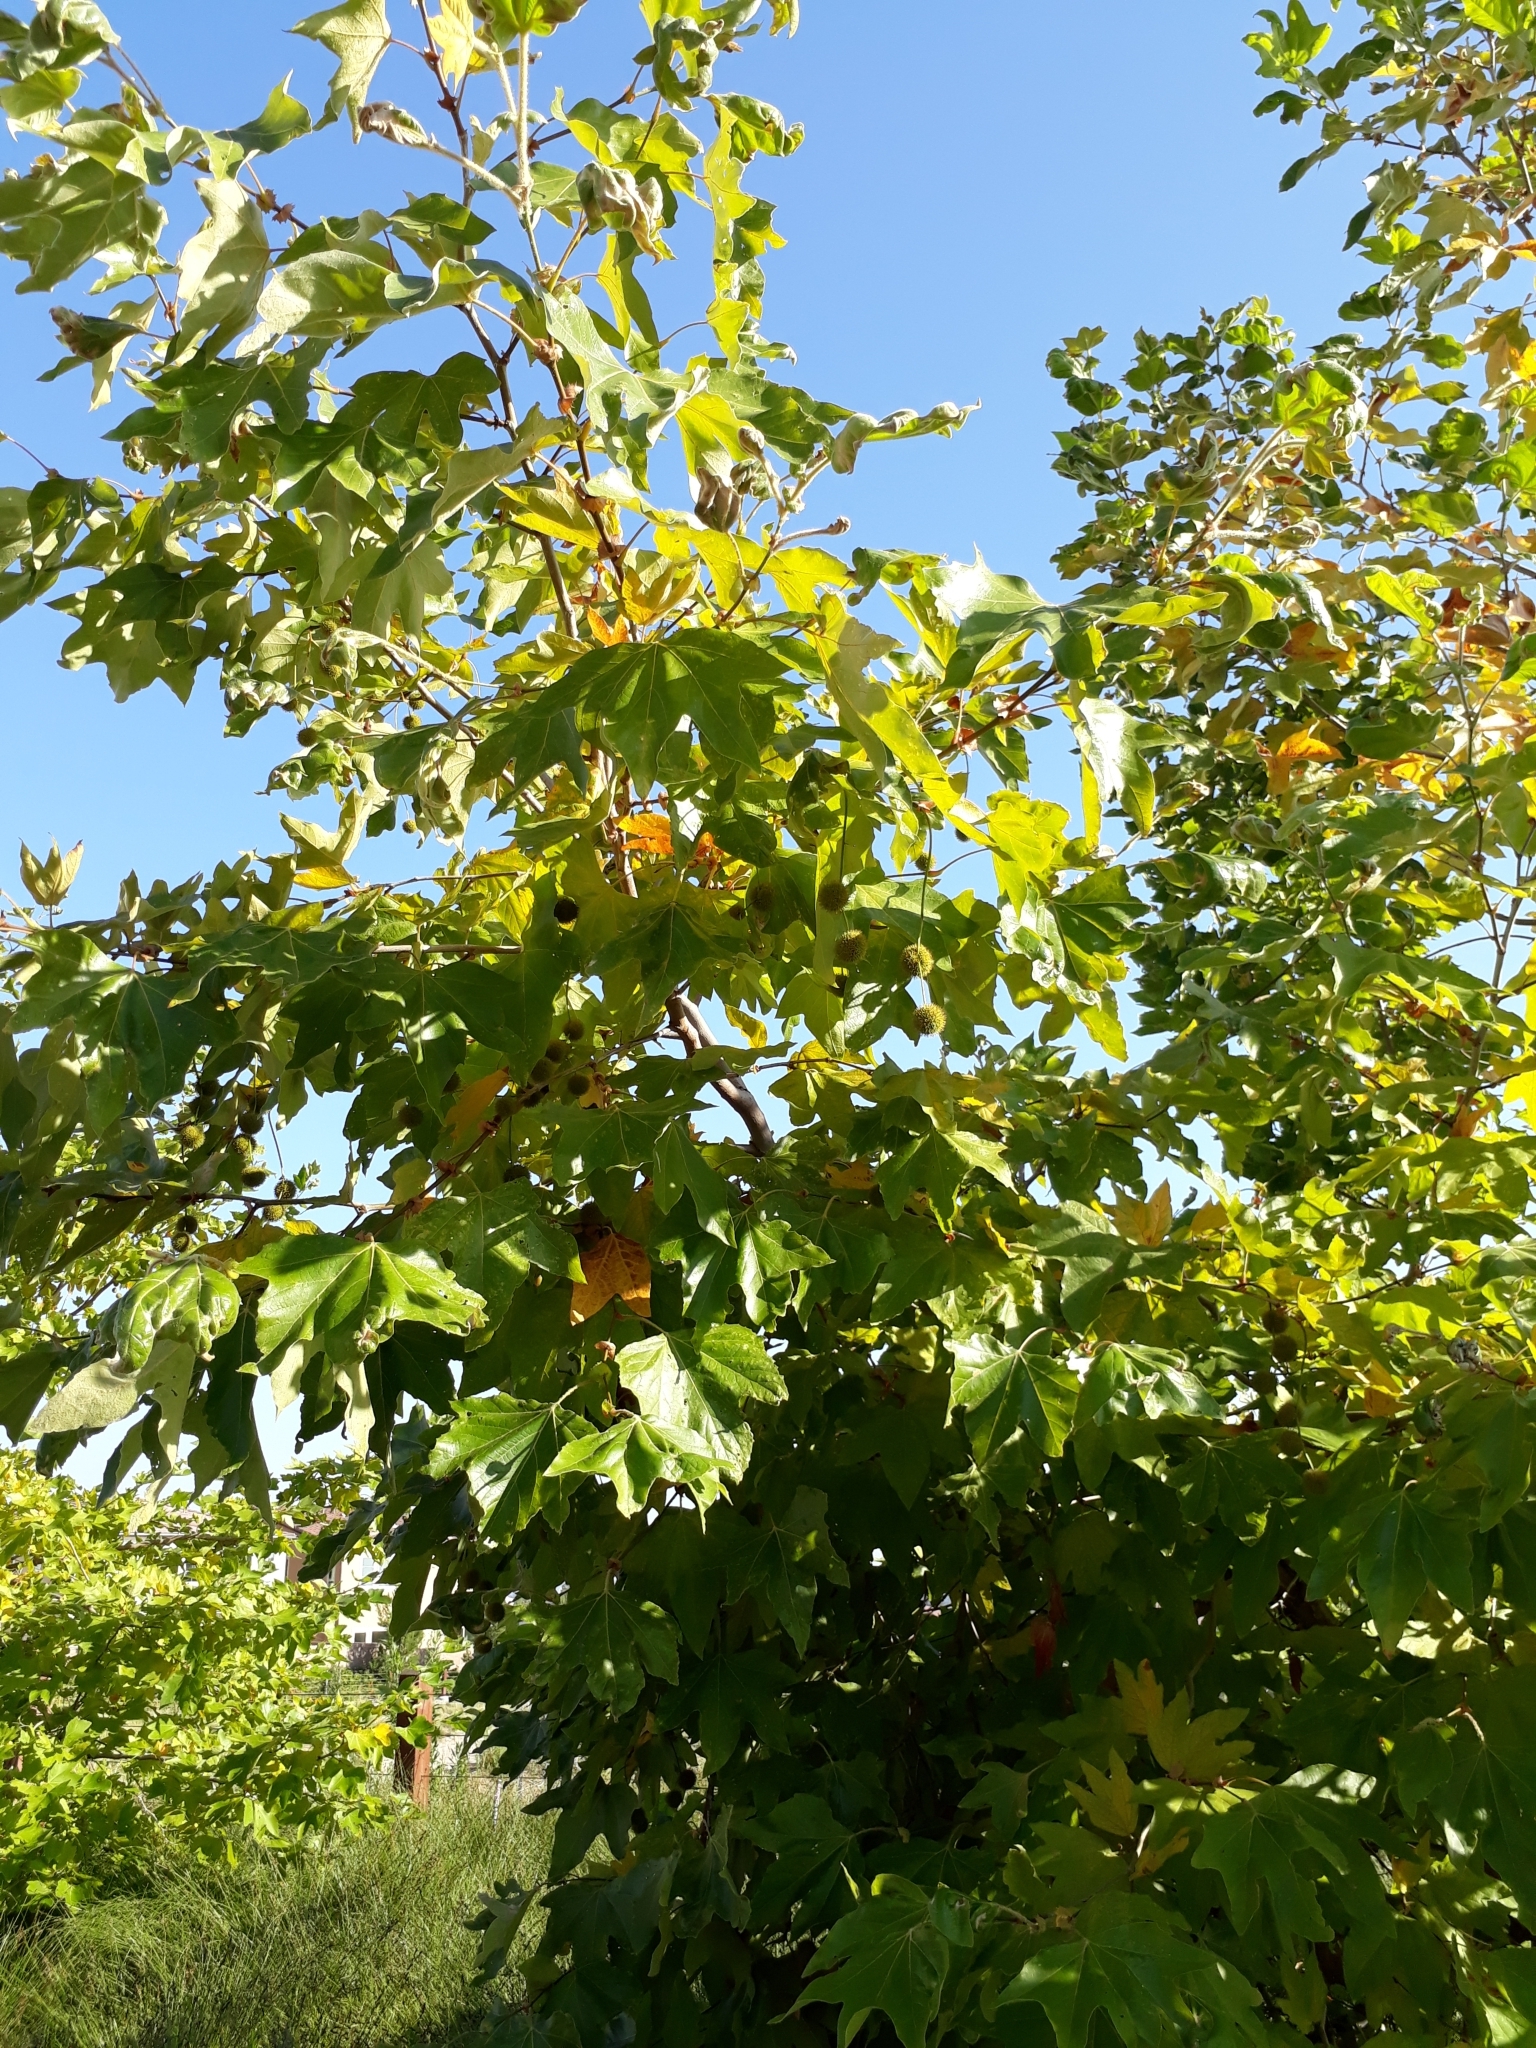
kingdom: Plantae
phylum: Tracheophyta
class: Magnoliopsida
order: Proteales
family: Platanaceae
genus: Platanus
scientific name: Platanus racemosa
